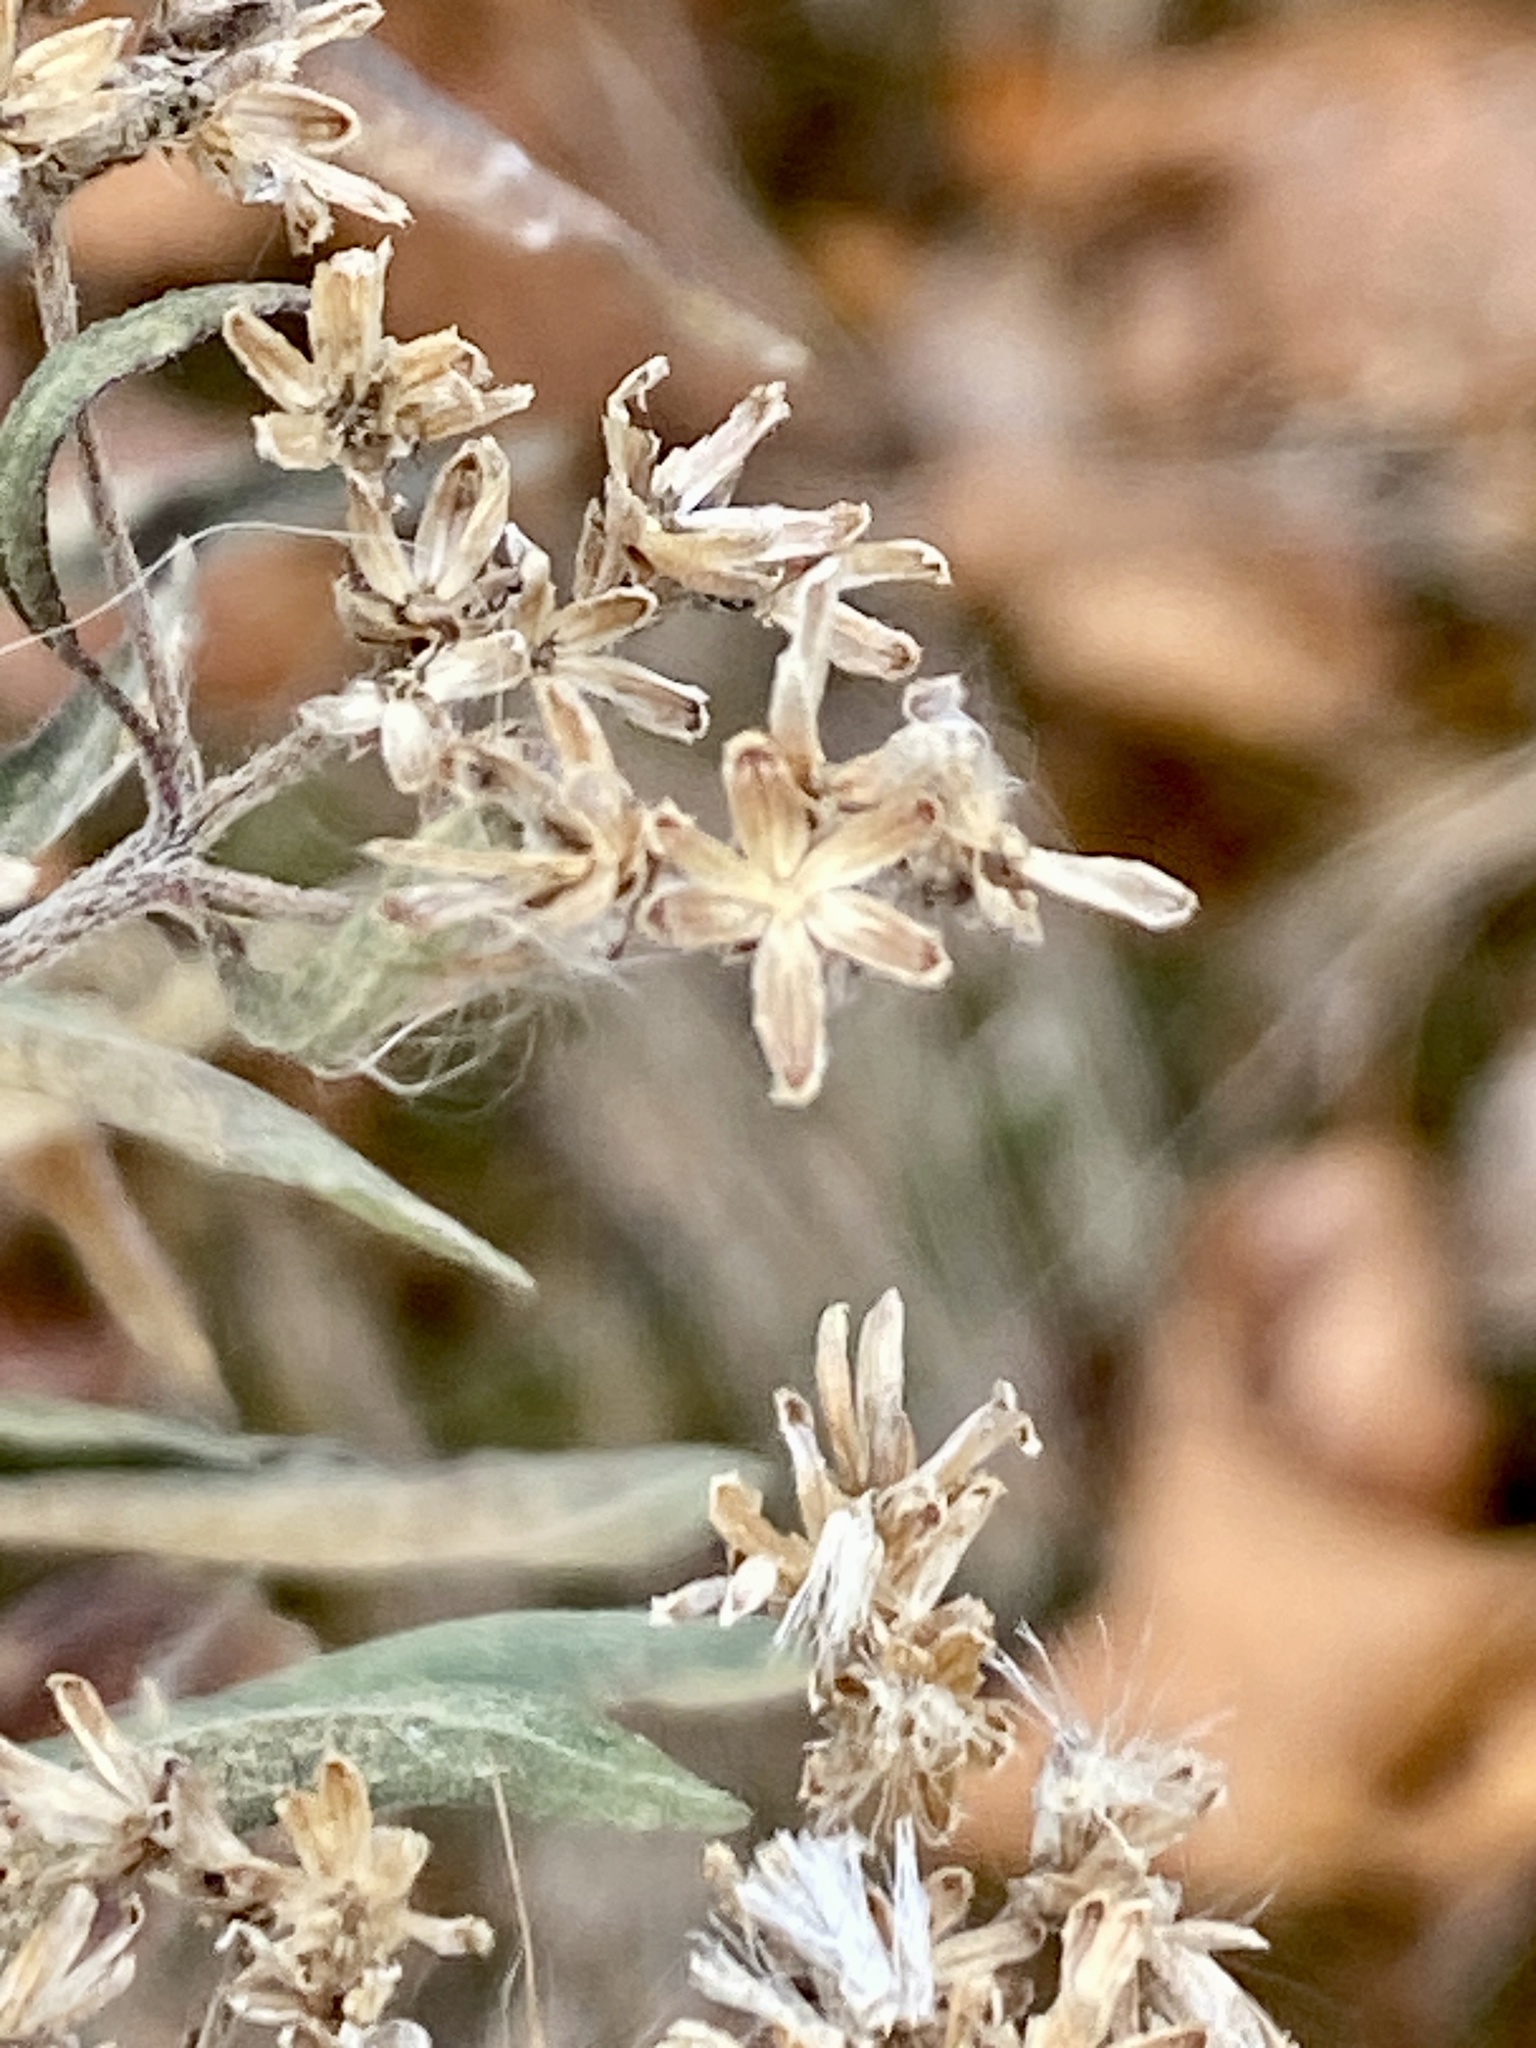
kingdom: Plantae
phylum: Tracheophyta
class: Magnoliopsida
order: Asterales
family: Asteraceae
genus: Eupatorium
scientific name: Eupatorium serotinum
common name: Late boneset
